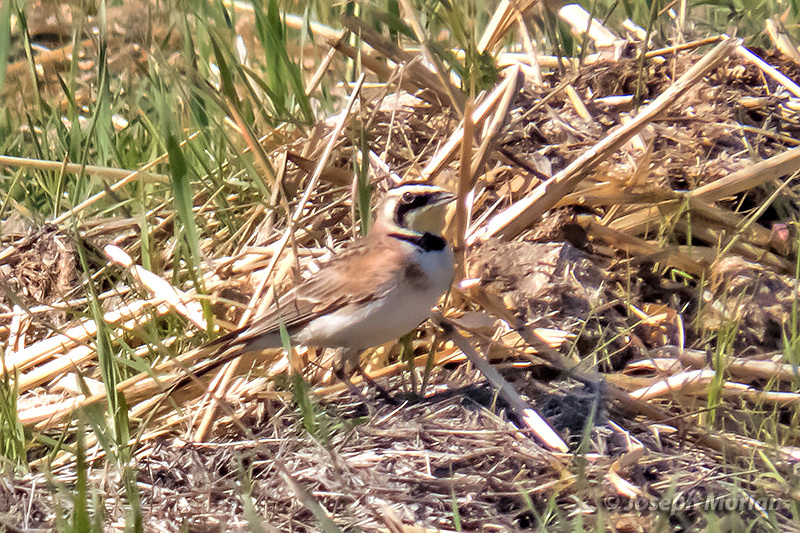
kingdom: Animalia
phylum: Chordata
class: Aves
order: Passeriformes
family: Alaudidae
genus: Eremophila
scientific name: Eremophila alpestris
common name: Horned lark
